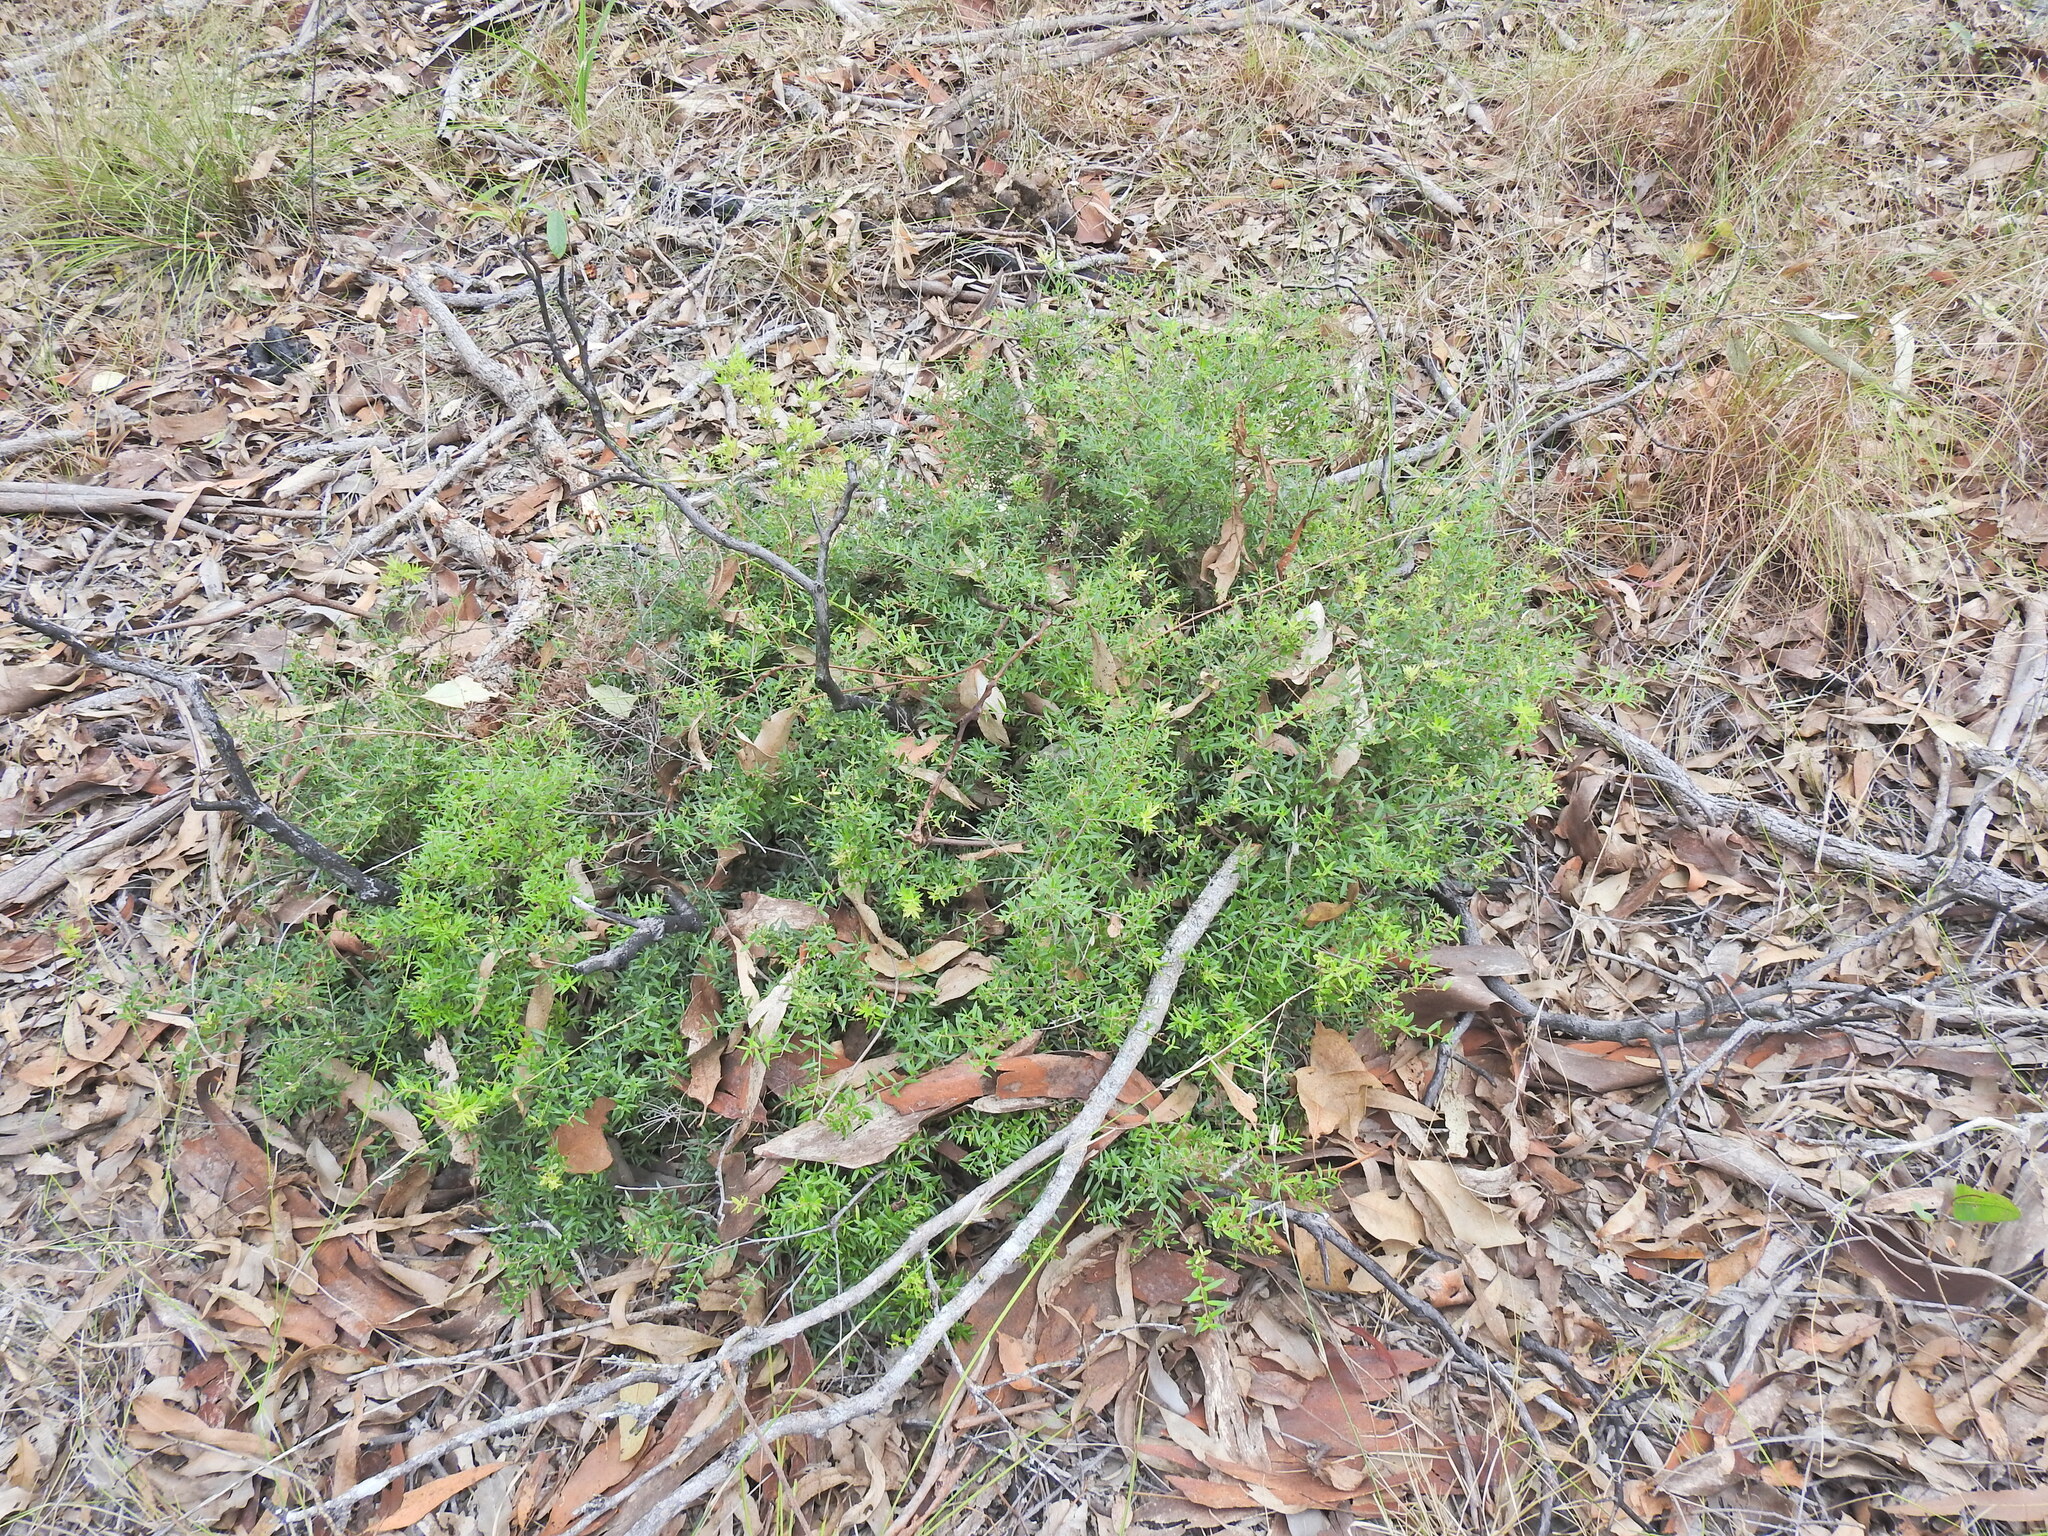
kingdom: Plantae
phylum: Tracheophyta
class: Magnoliopsida
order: Ericales
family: Ericaceae
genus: Acrotriche
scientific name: Acrotriche aggregata
